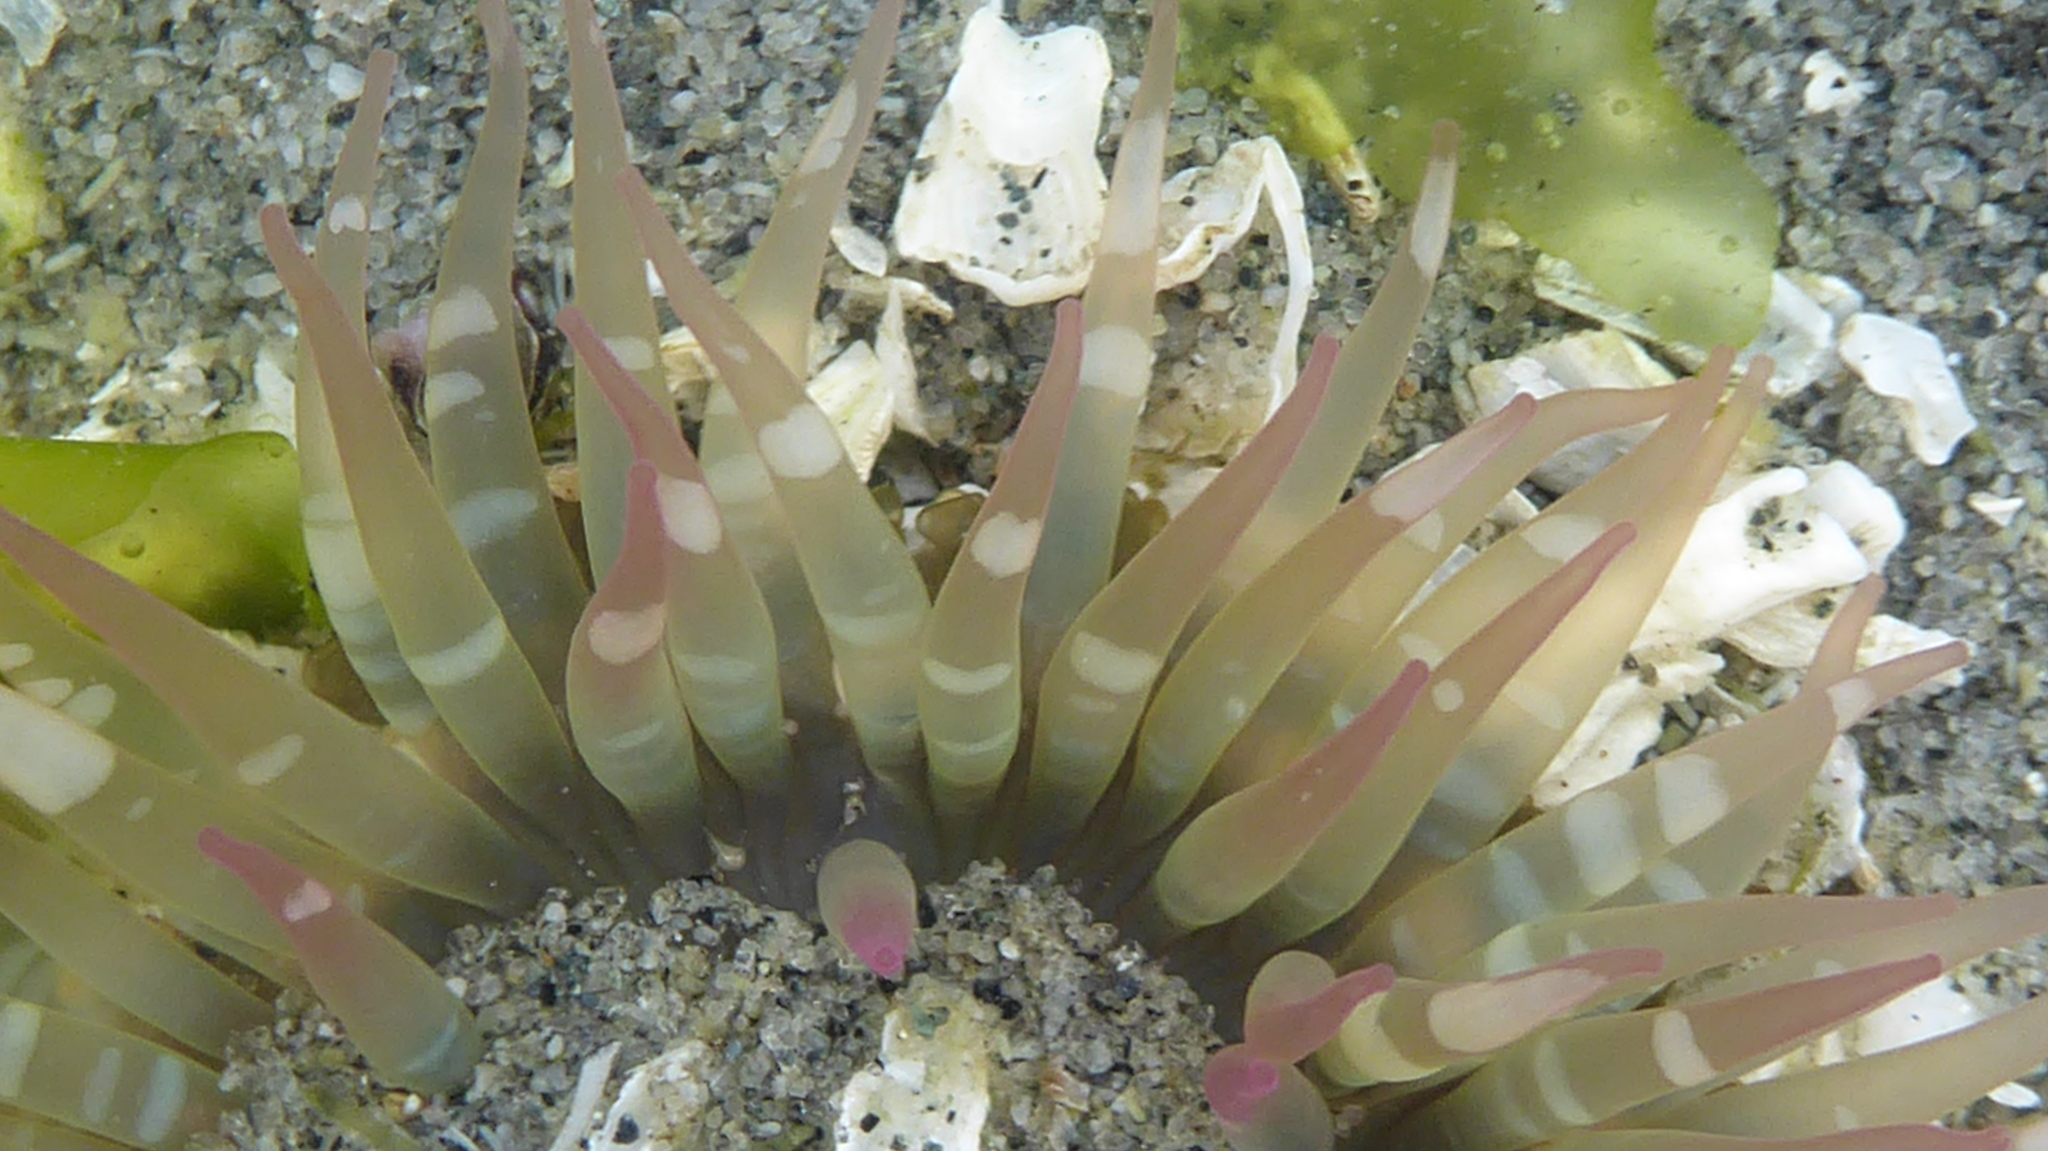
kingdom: Animalia
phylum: Cnidaria
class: Anthozoa
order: Actiniaria
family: Actiniidae
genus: Anthopleura
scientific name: Anthopleura elegantissima
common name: Clonal anemone
